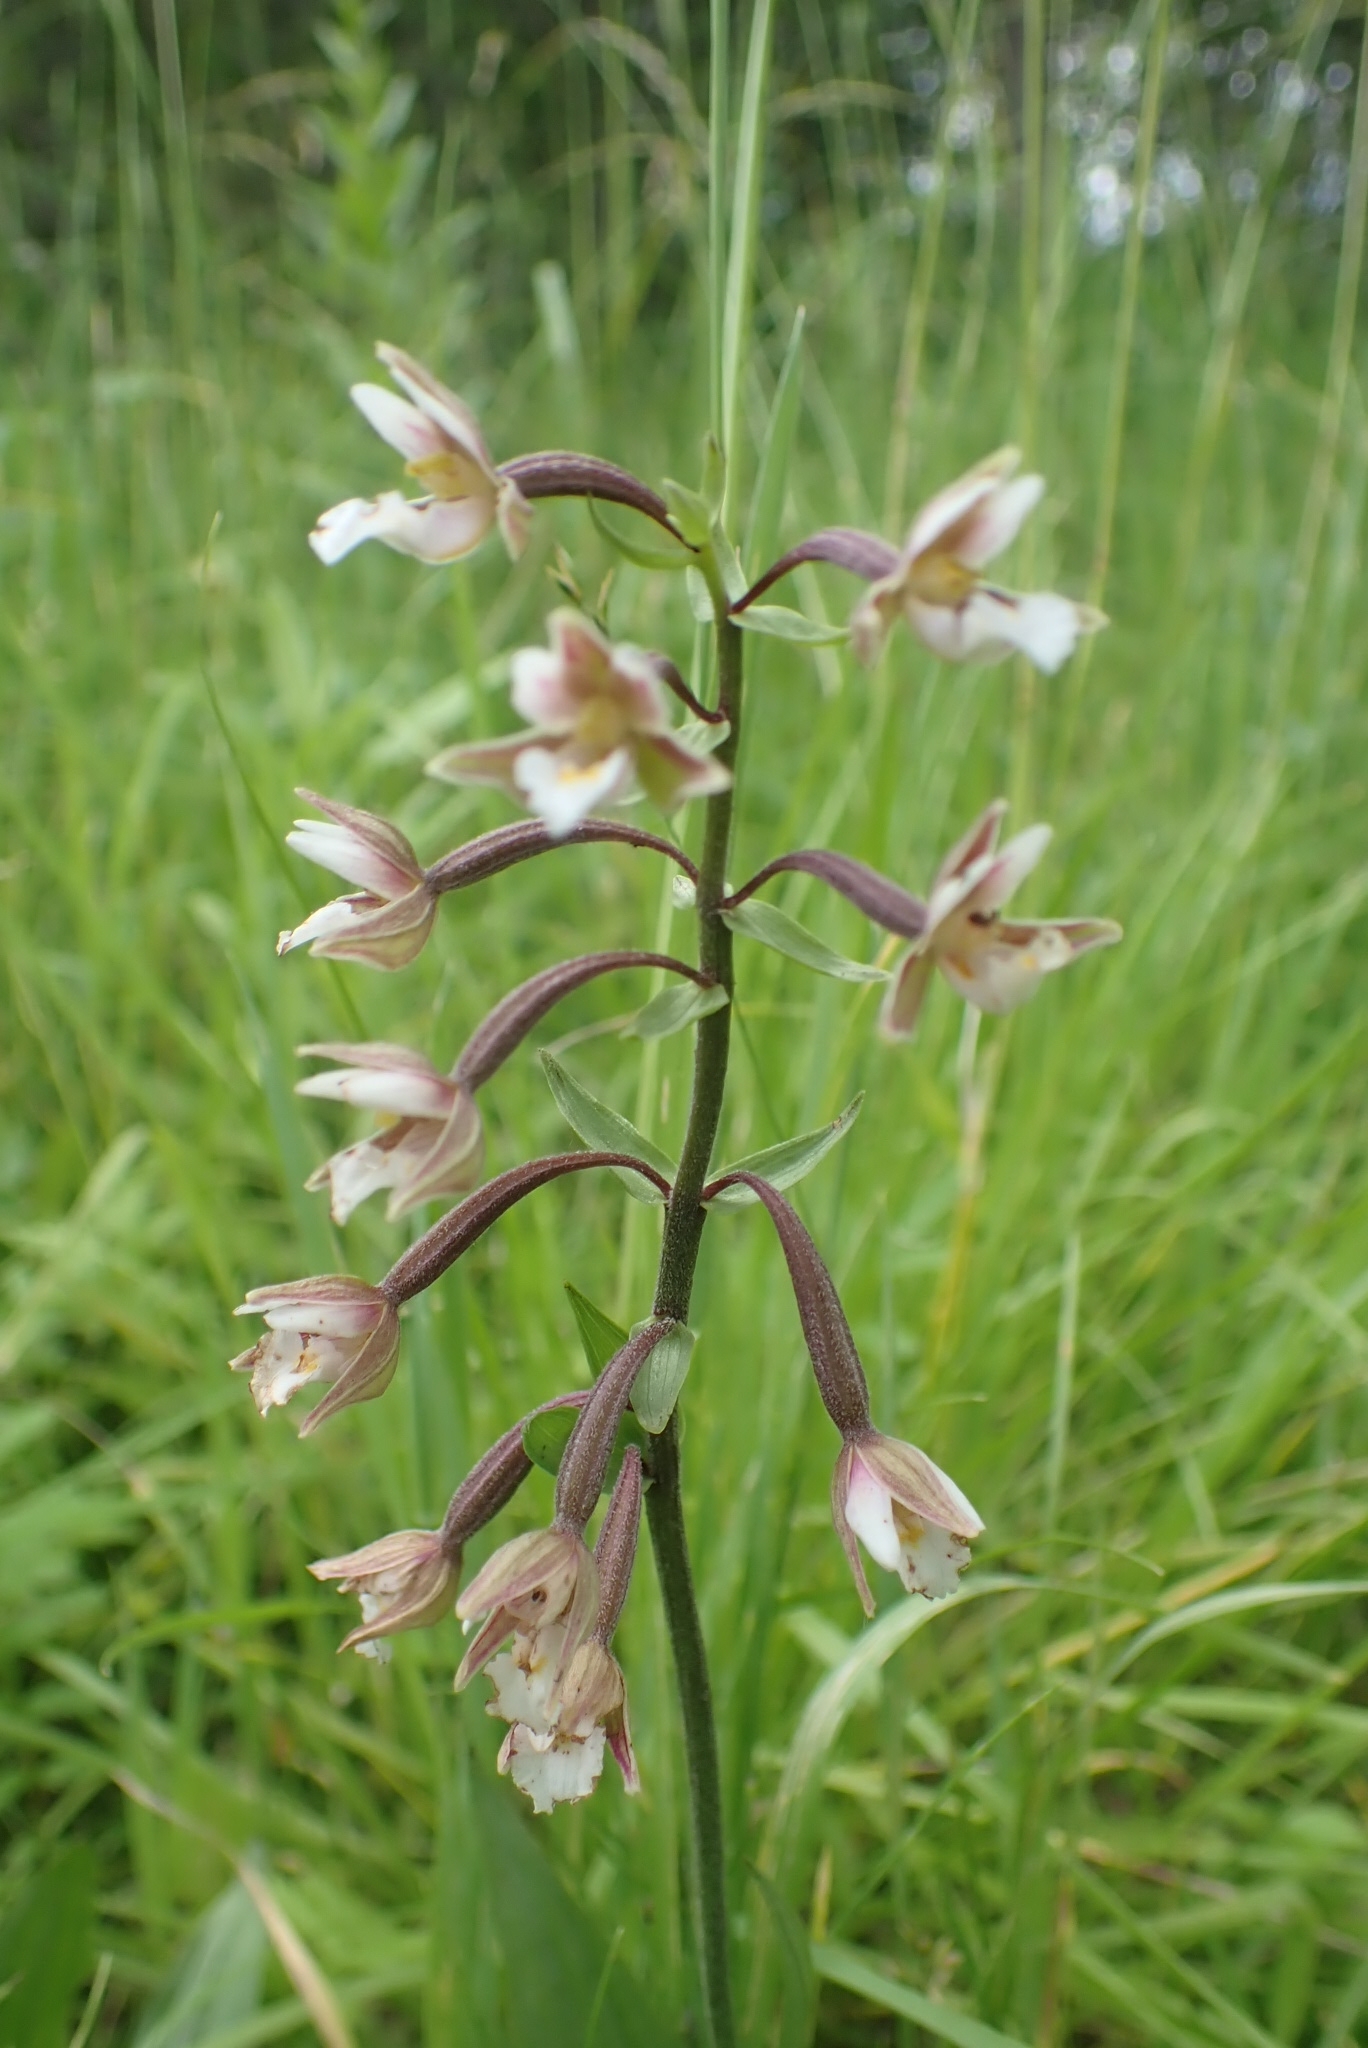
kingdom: Plantae
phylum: Tracheophyta
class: Liliopsida
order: Asparagales
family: Orchidaceae
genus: Epipactis
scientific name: Epipactis palustris
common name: Marsh helleborine
